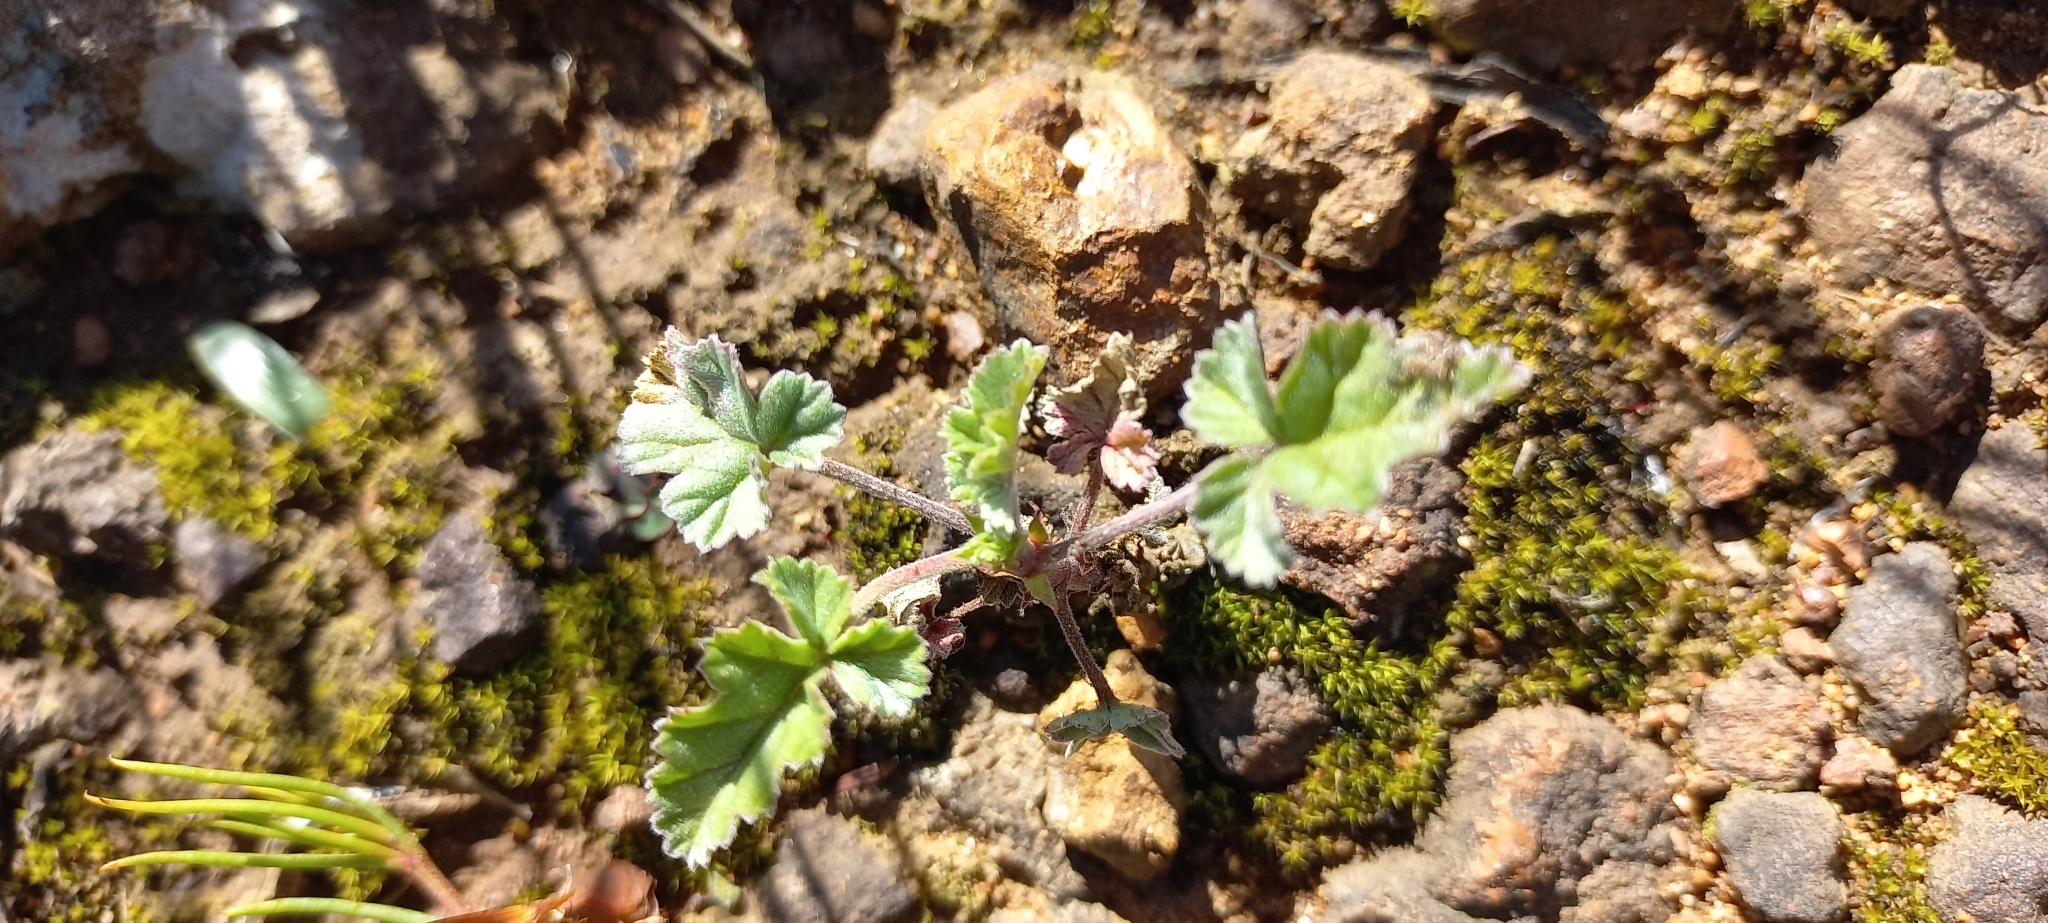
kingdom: Plantae
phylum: Tracheophyta
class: Magnoliopsida
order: Geraniales
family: Geraniaceae
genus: Pelargonium
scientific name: Pelargonium candicans
